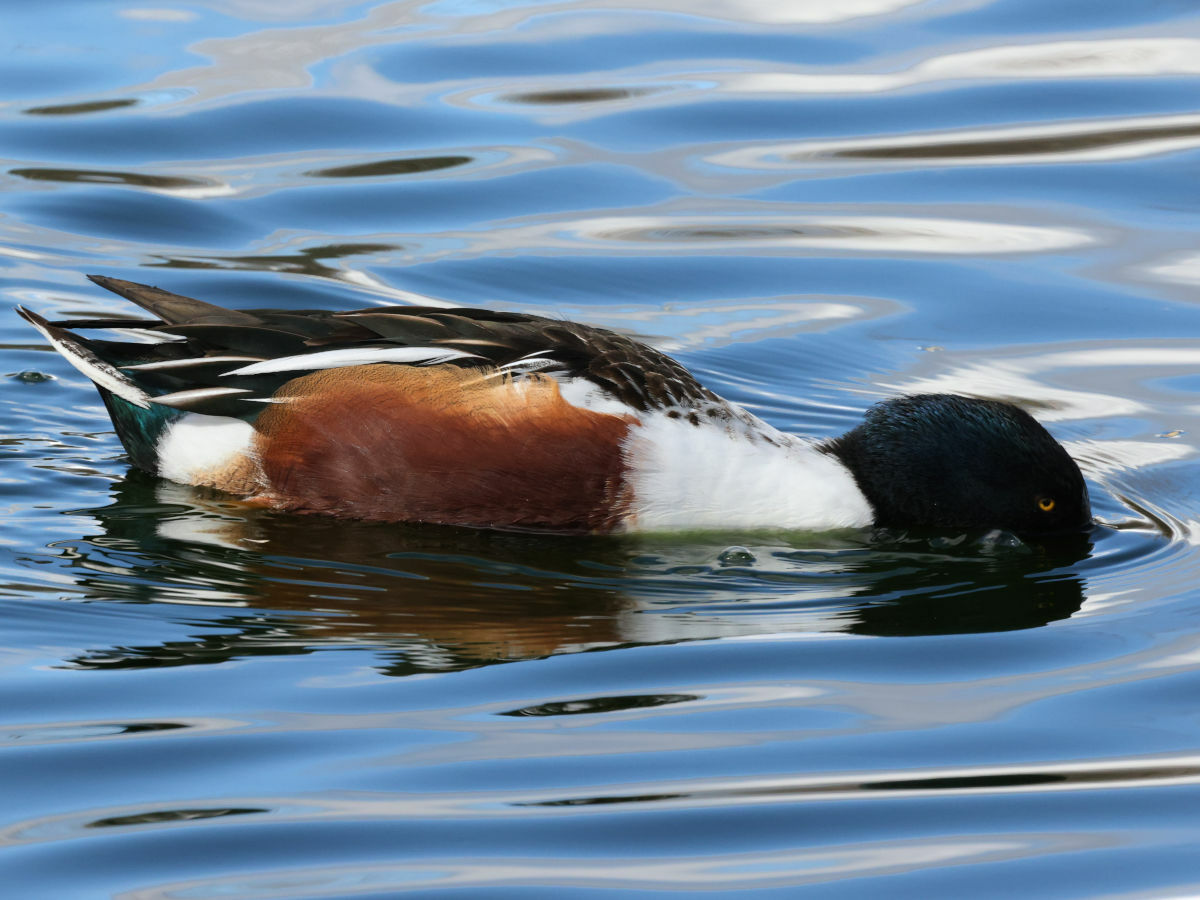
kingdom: Animalia
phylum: Chordata
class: Aves
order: Anseriformes
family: Anatidae
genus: Spatula
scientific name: Spatula clypeata
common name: Northern shoveler
